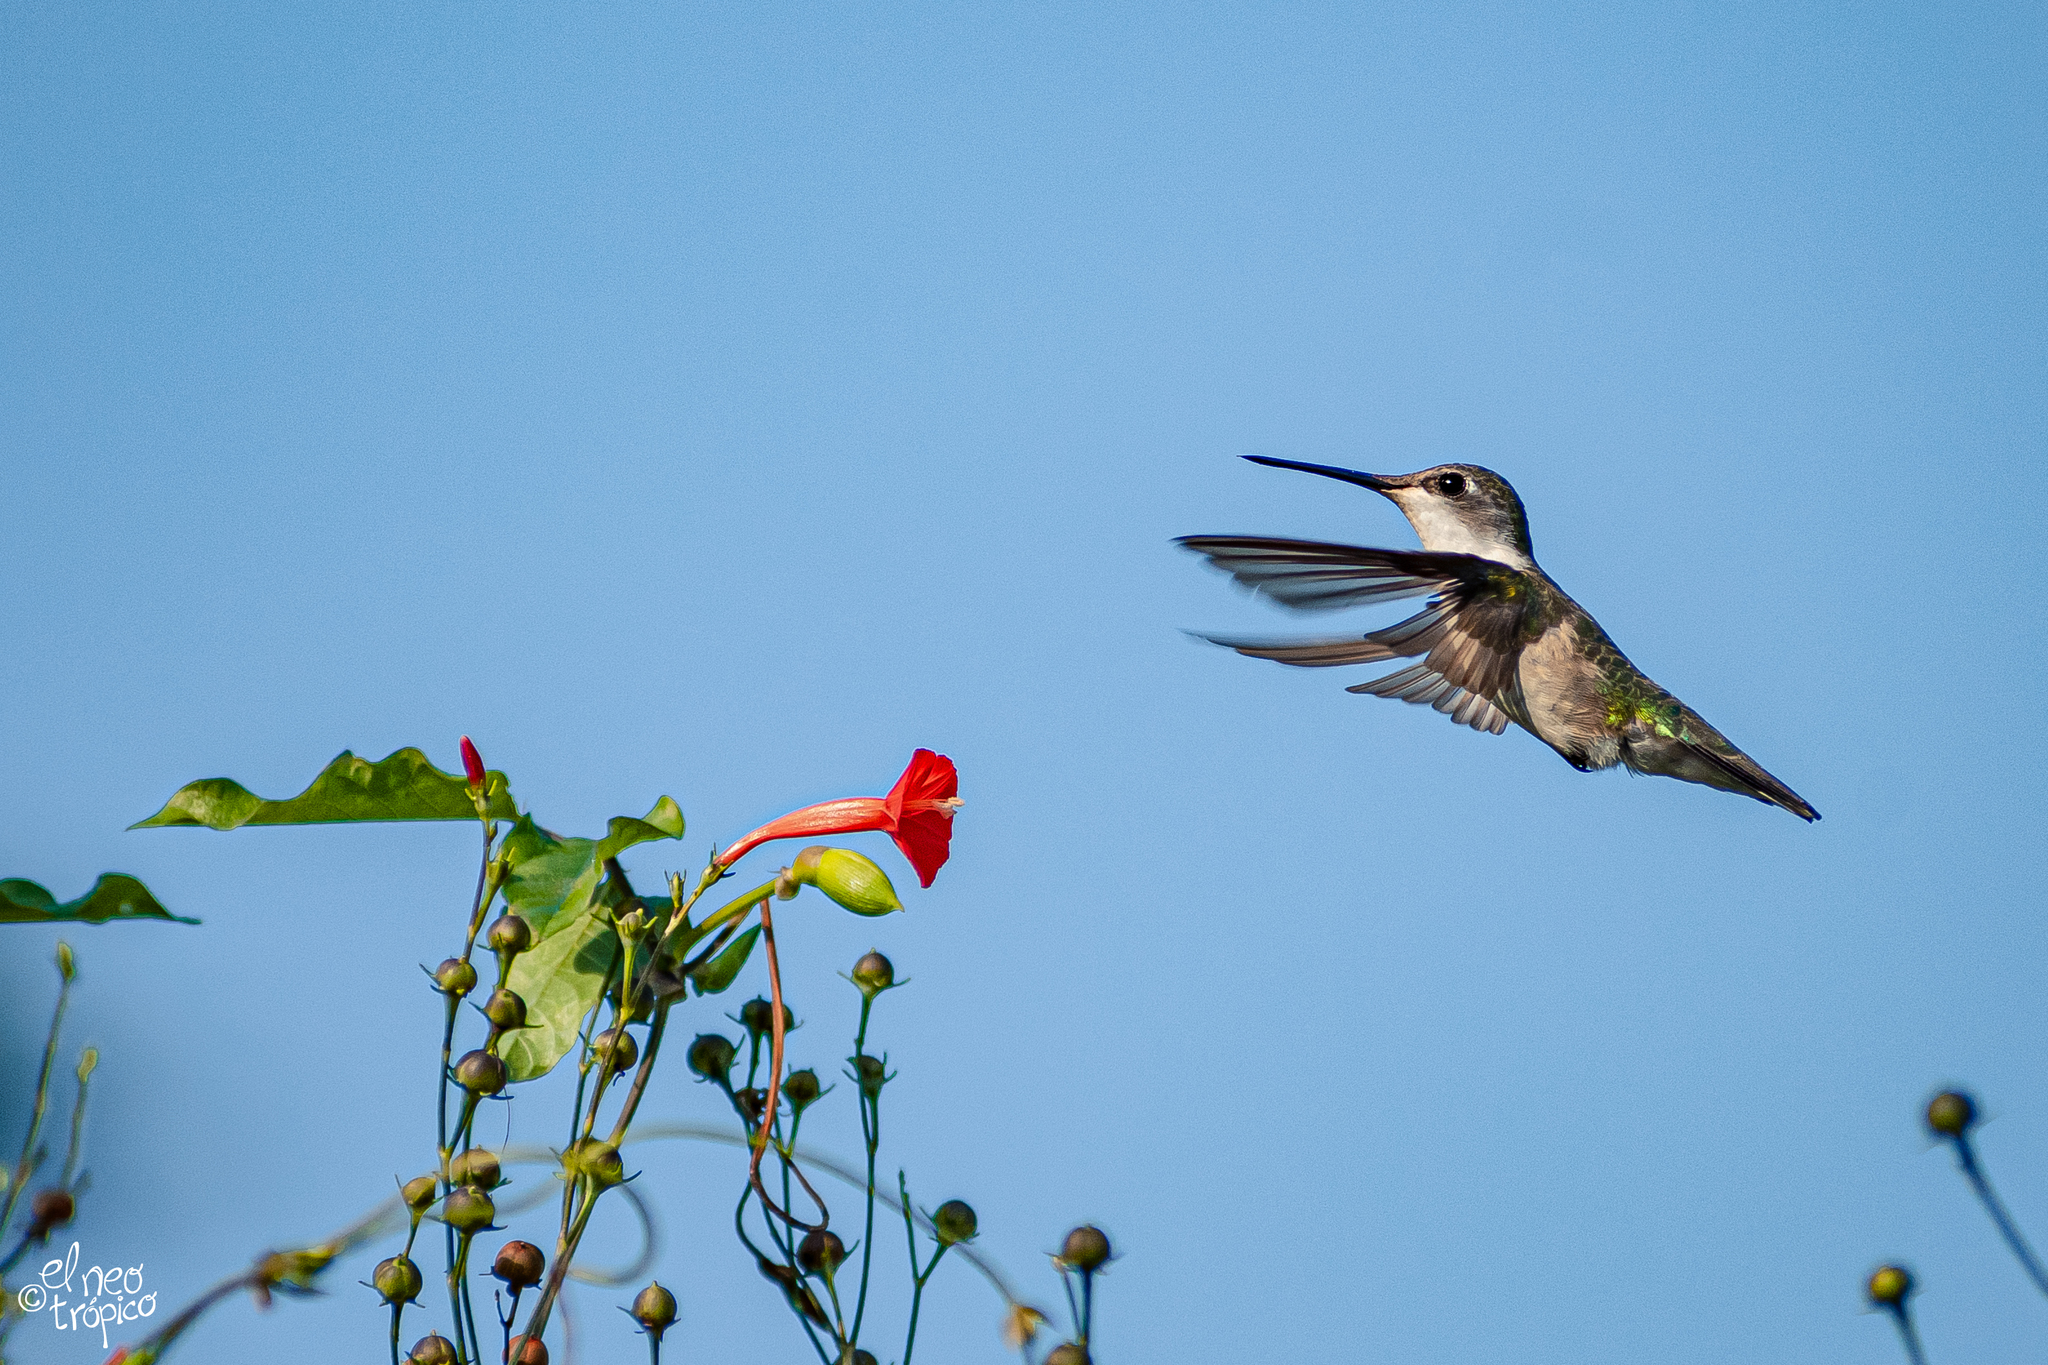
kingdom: Animalia
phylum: Chordata
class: Aves
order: Apodiformes
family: Trochilidae
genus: Archilochus
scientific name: Archilochus colubris
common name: Ruby-throated hummingbird
